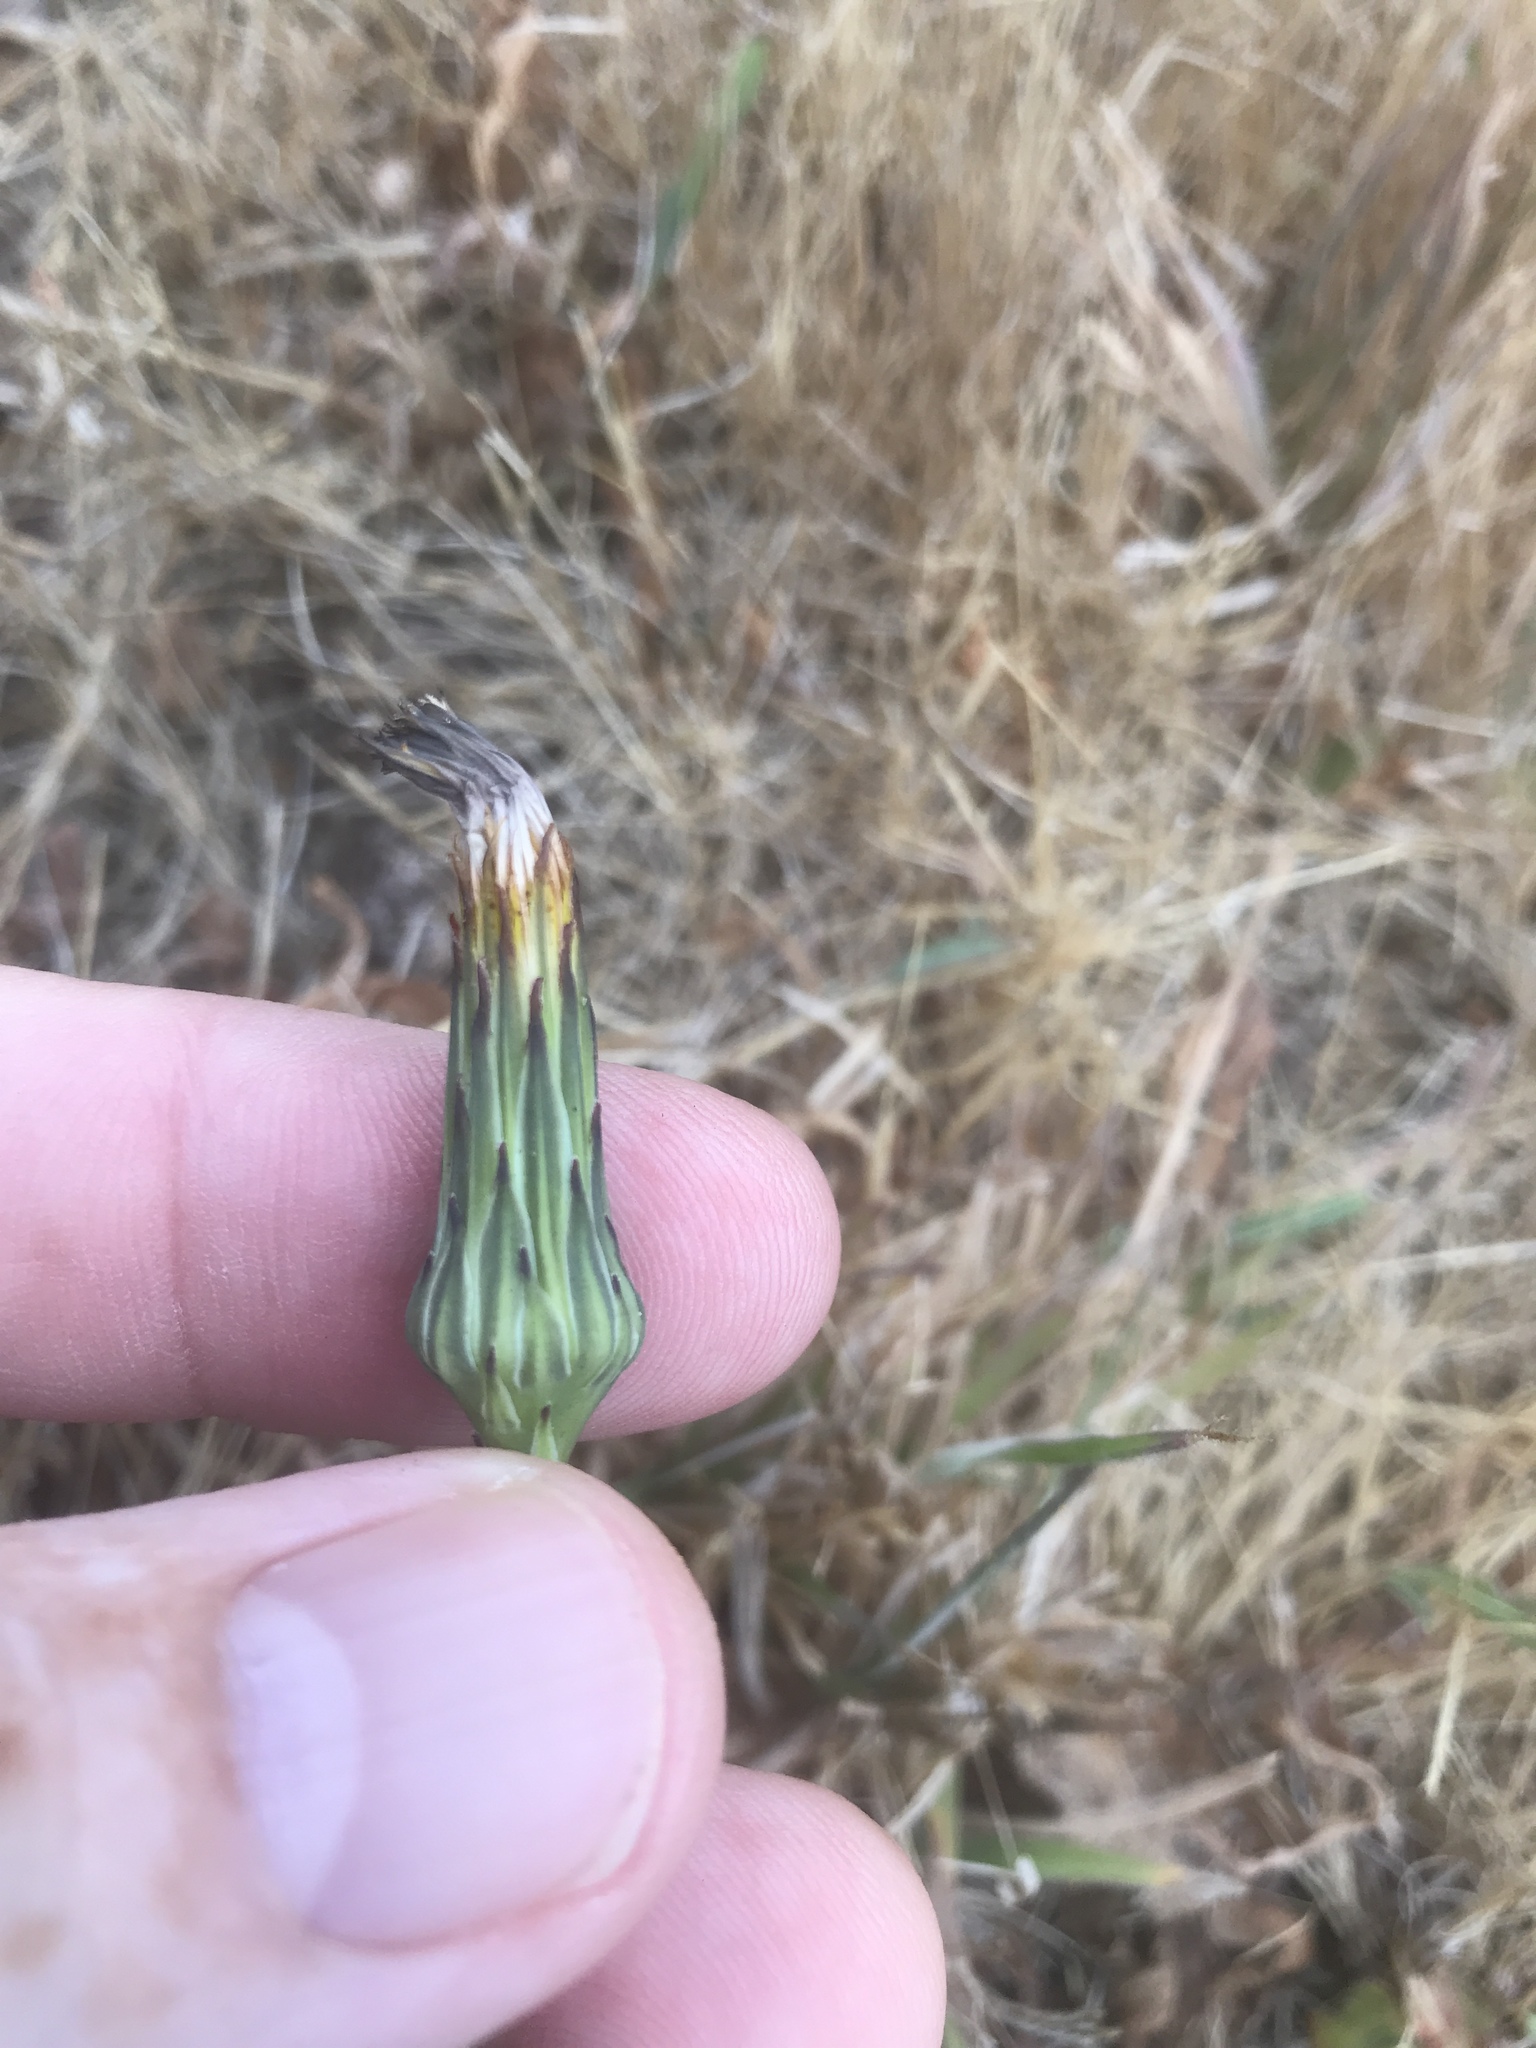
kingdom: Plantae
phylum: Tracheophyta
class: Magnoliopsida
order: Asterales
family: Asteraceae
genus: Hypochaeris
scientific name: Hypochaeris radicata
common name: Flatweed
